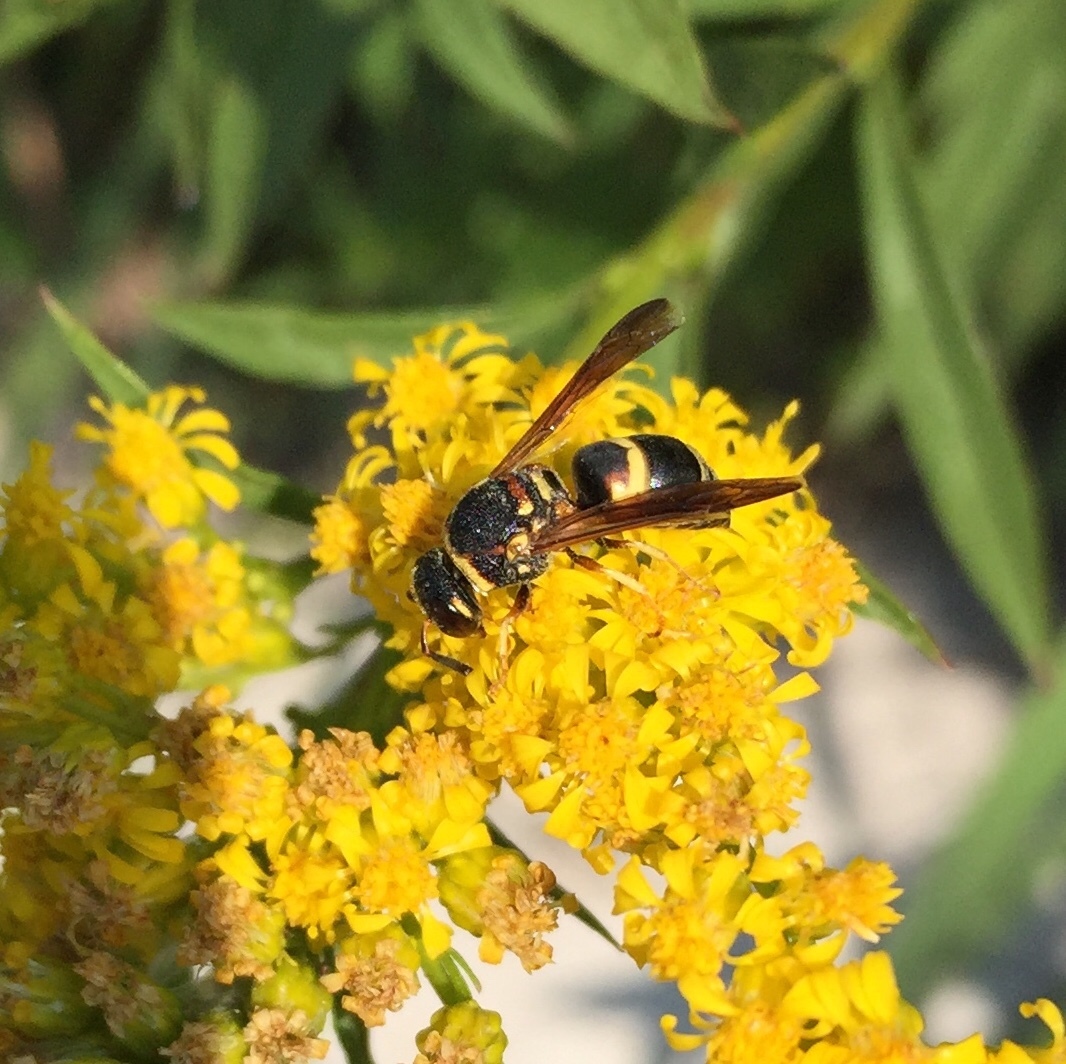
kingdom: Animalia
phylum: Arthropoda
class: Insecta
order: Hymenoptera
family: Eumenidae
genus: Euodynerus
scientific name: Euodynerus hidalgo
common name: Wasp
